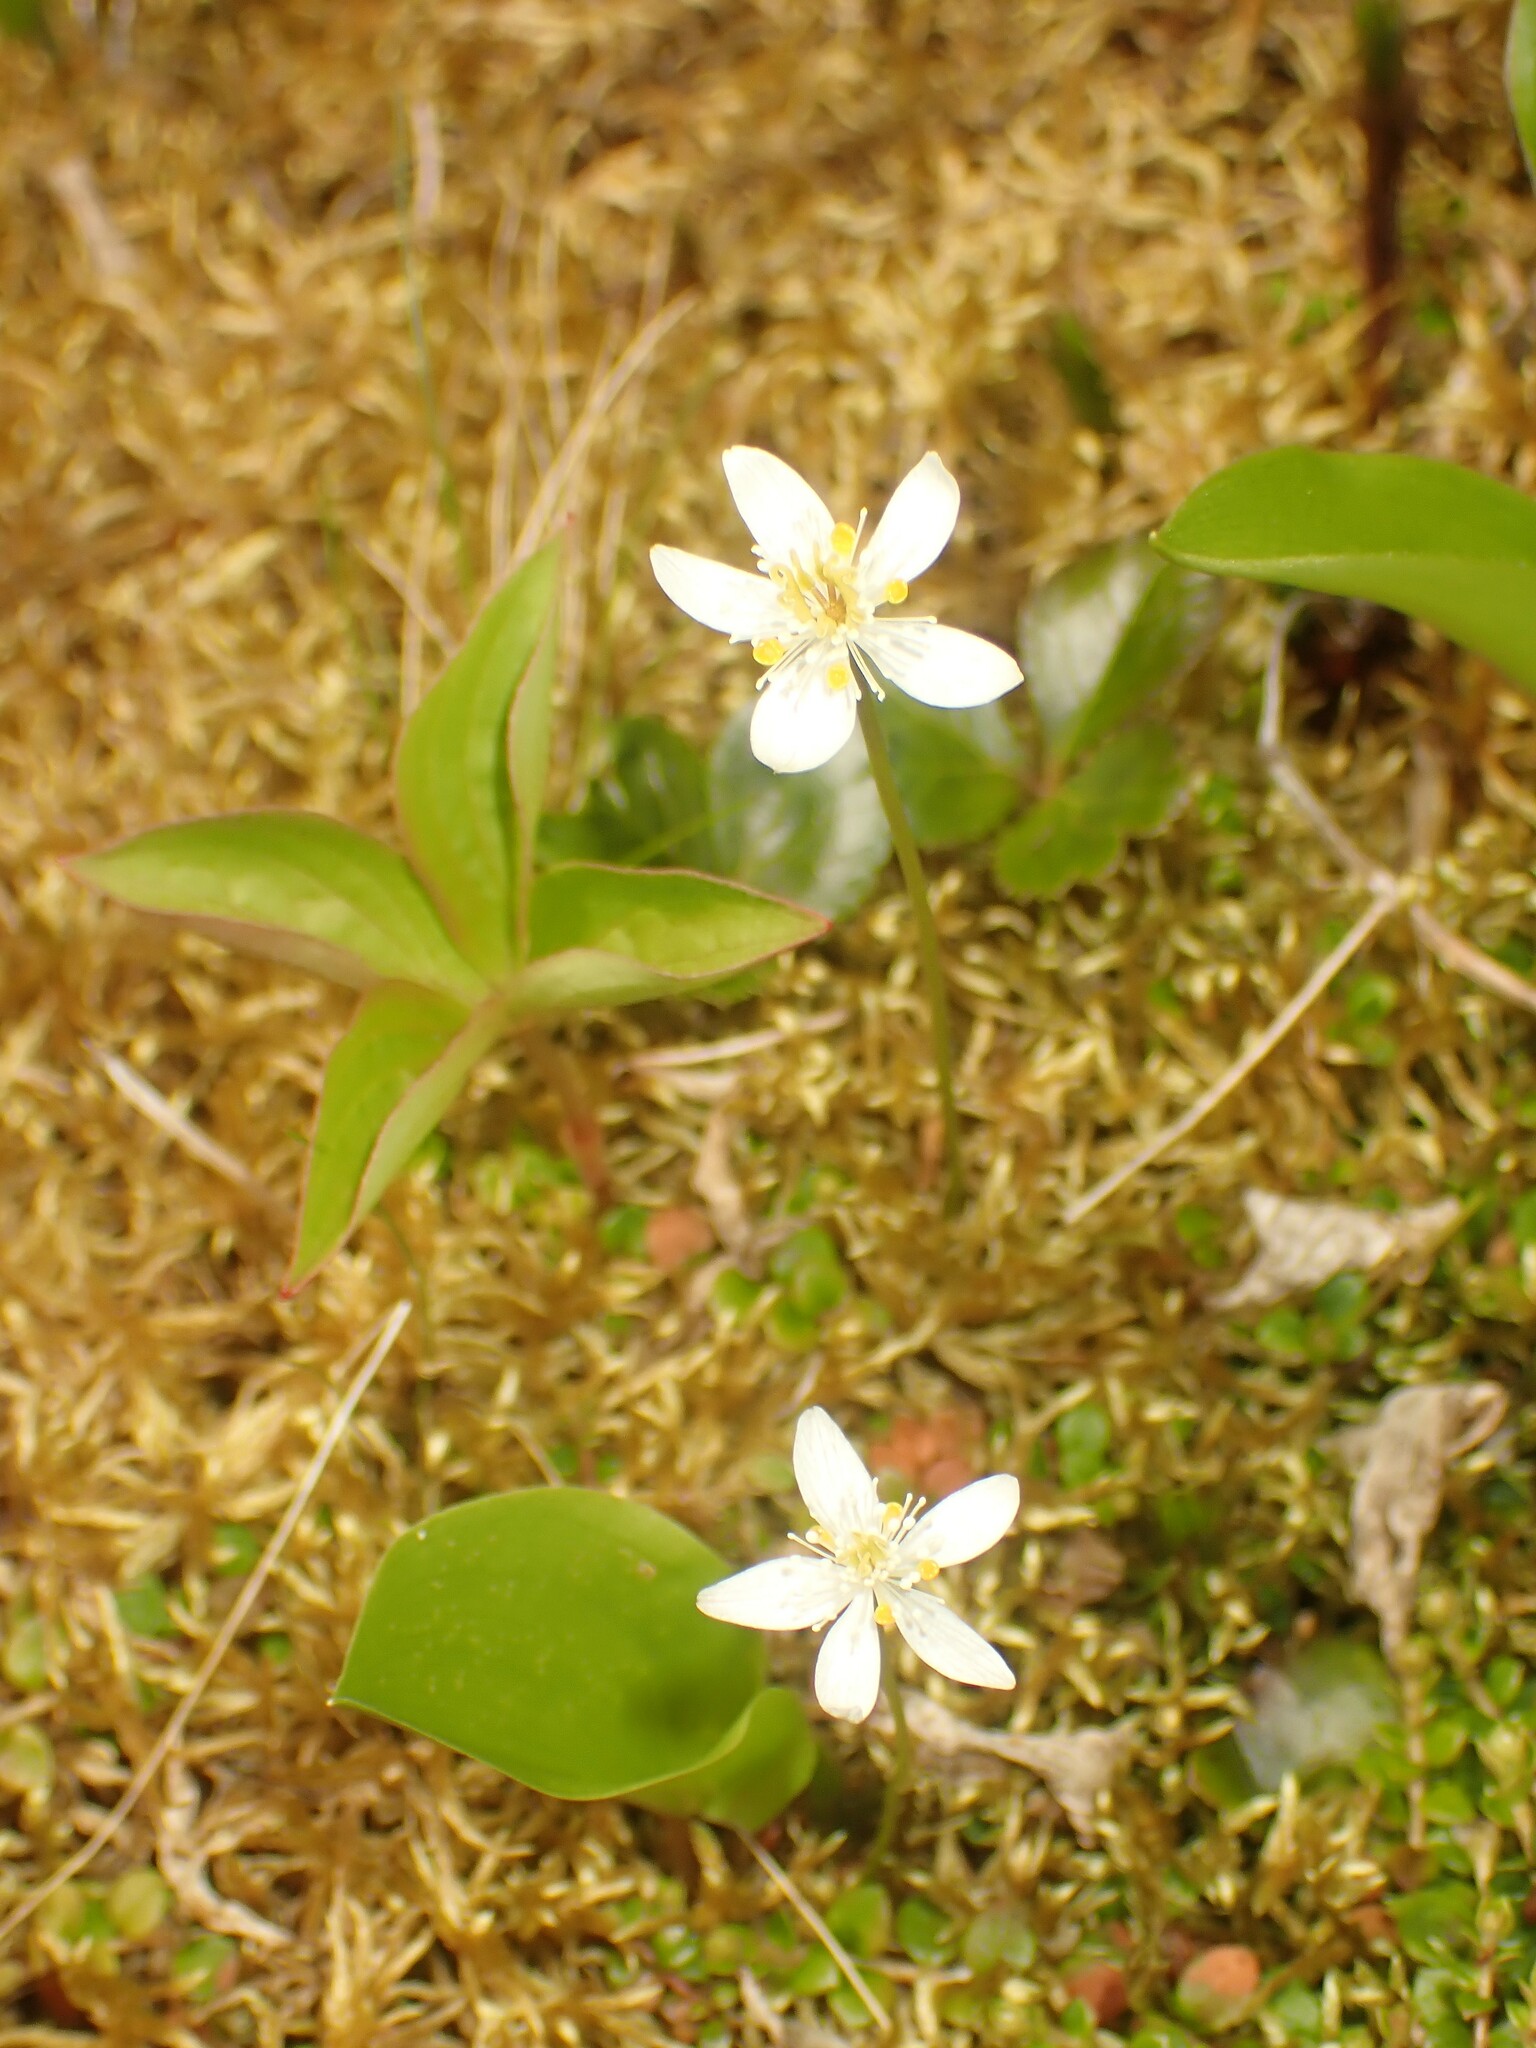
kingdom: Plantae
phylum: Tracheophyta
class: Magnoliopsida
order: Ranunculales
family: Ranunculaceae
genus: Coptis
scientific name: Coptis trifolia
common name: Canker-root
